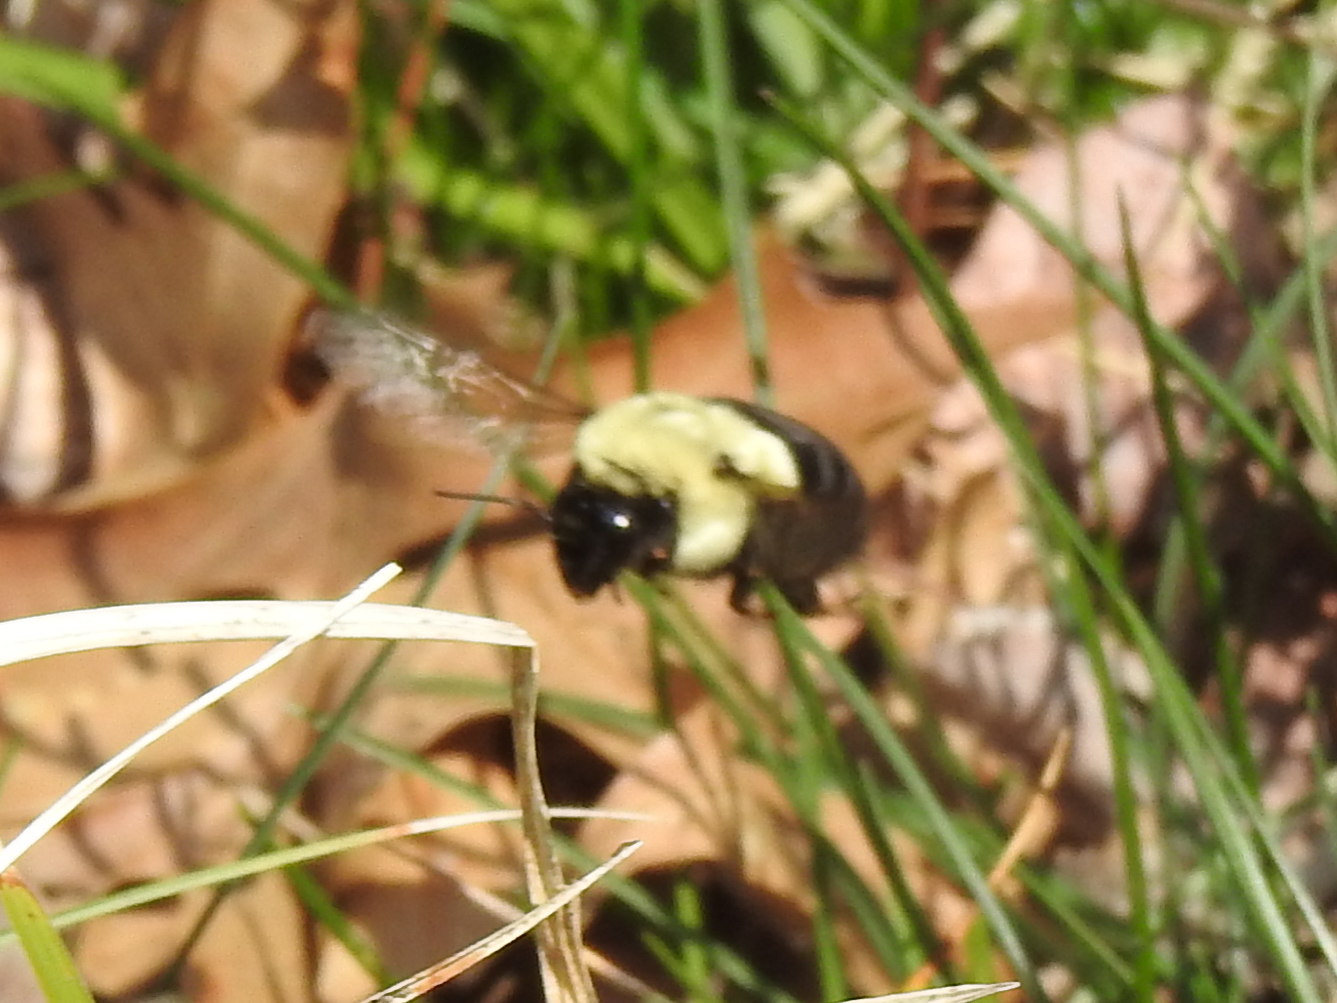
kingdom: Animalia
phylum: Arthropoda
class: Insecta
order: Hymenoptera
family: Apidae
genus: Bombus
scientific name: Bombus impatiens
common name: Common eastern bumble bee
